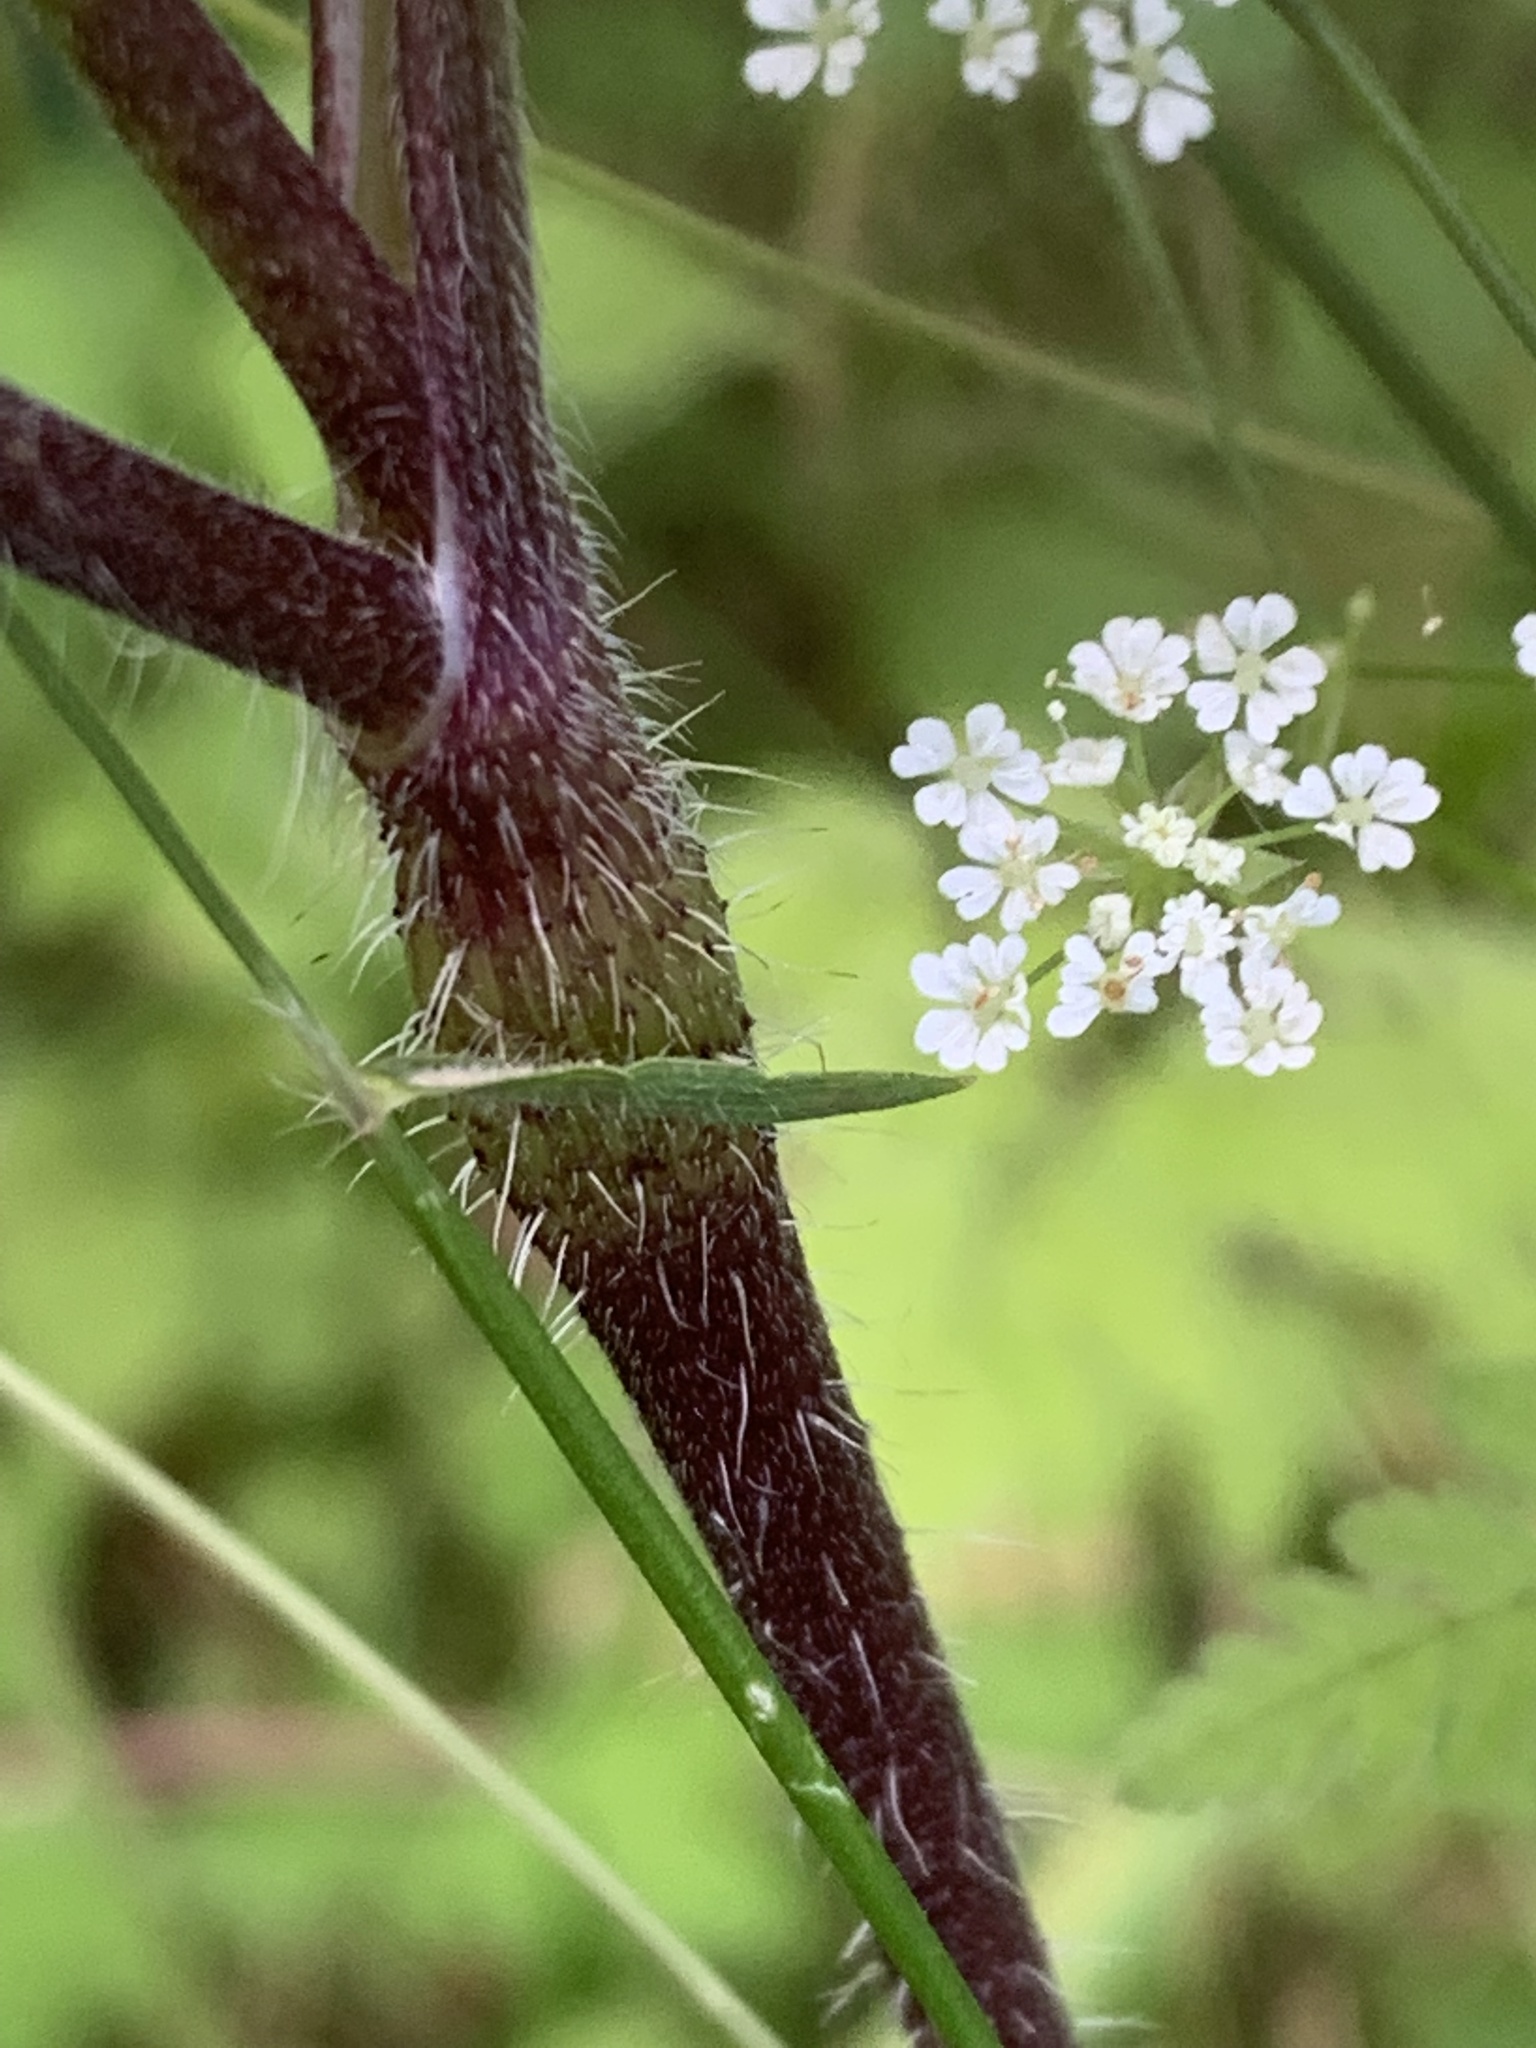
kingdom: Plantae
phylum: Tracheophyta
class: Magnoliopsida
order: Apiales
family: Apiaceae
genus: Chaerophyllum
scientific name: Chaerophyllum temulum
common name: Rough chervil
